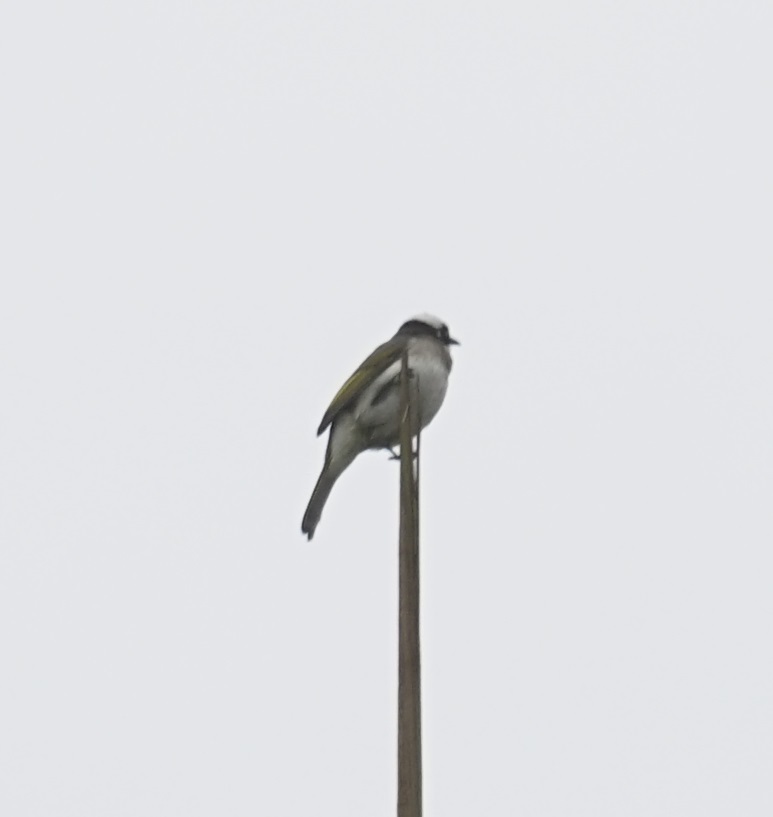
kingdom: Animalia
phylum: Chordata
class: Aves
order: Passeriformes
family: Pycnonotidae
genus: Pycnonotus
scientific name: Pycnonotus sinensis
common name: Light-vented bulbul
